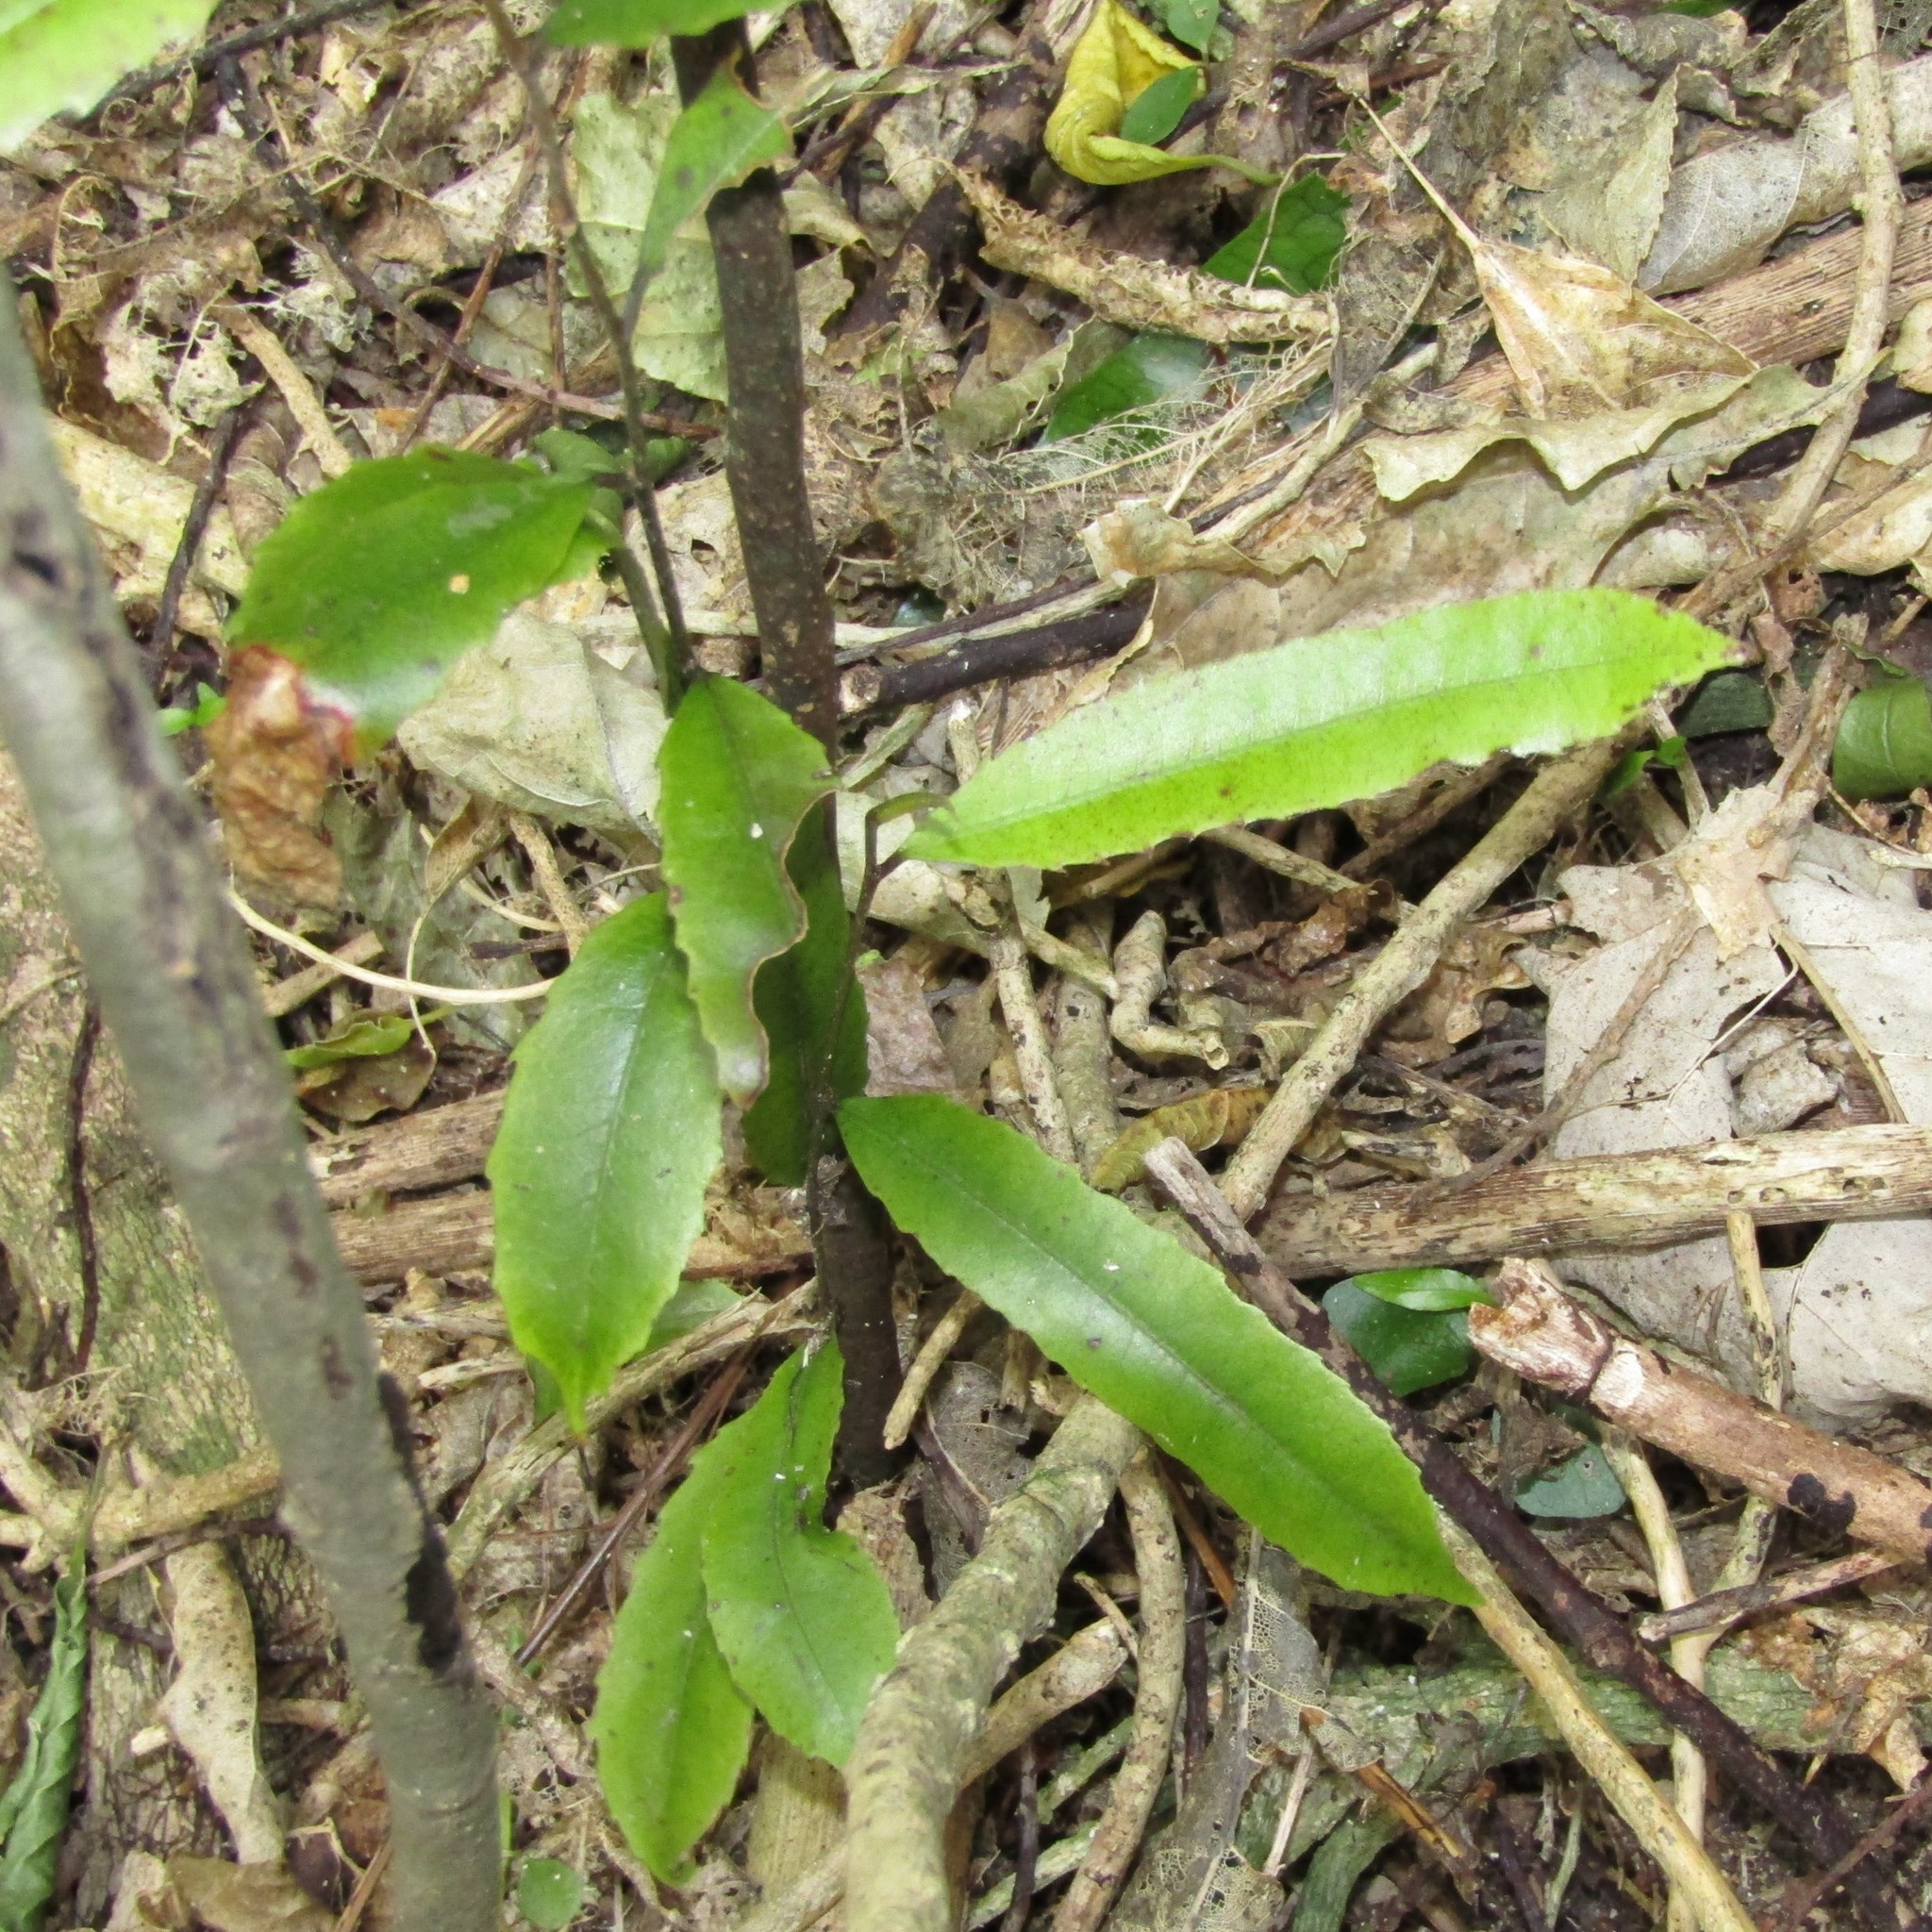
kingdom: Plantae
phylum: Tracheophyta
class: Magnoliopsida
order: Oxalidales
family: Elaeocarpaceae
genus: Elaeocarpus
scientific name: Elaeocarpus dentatus
